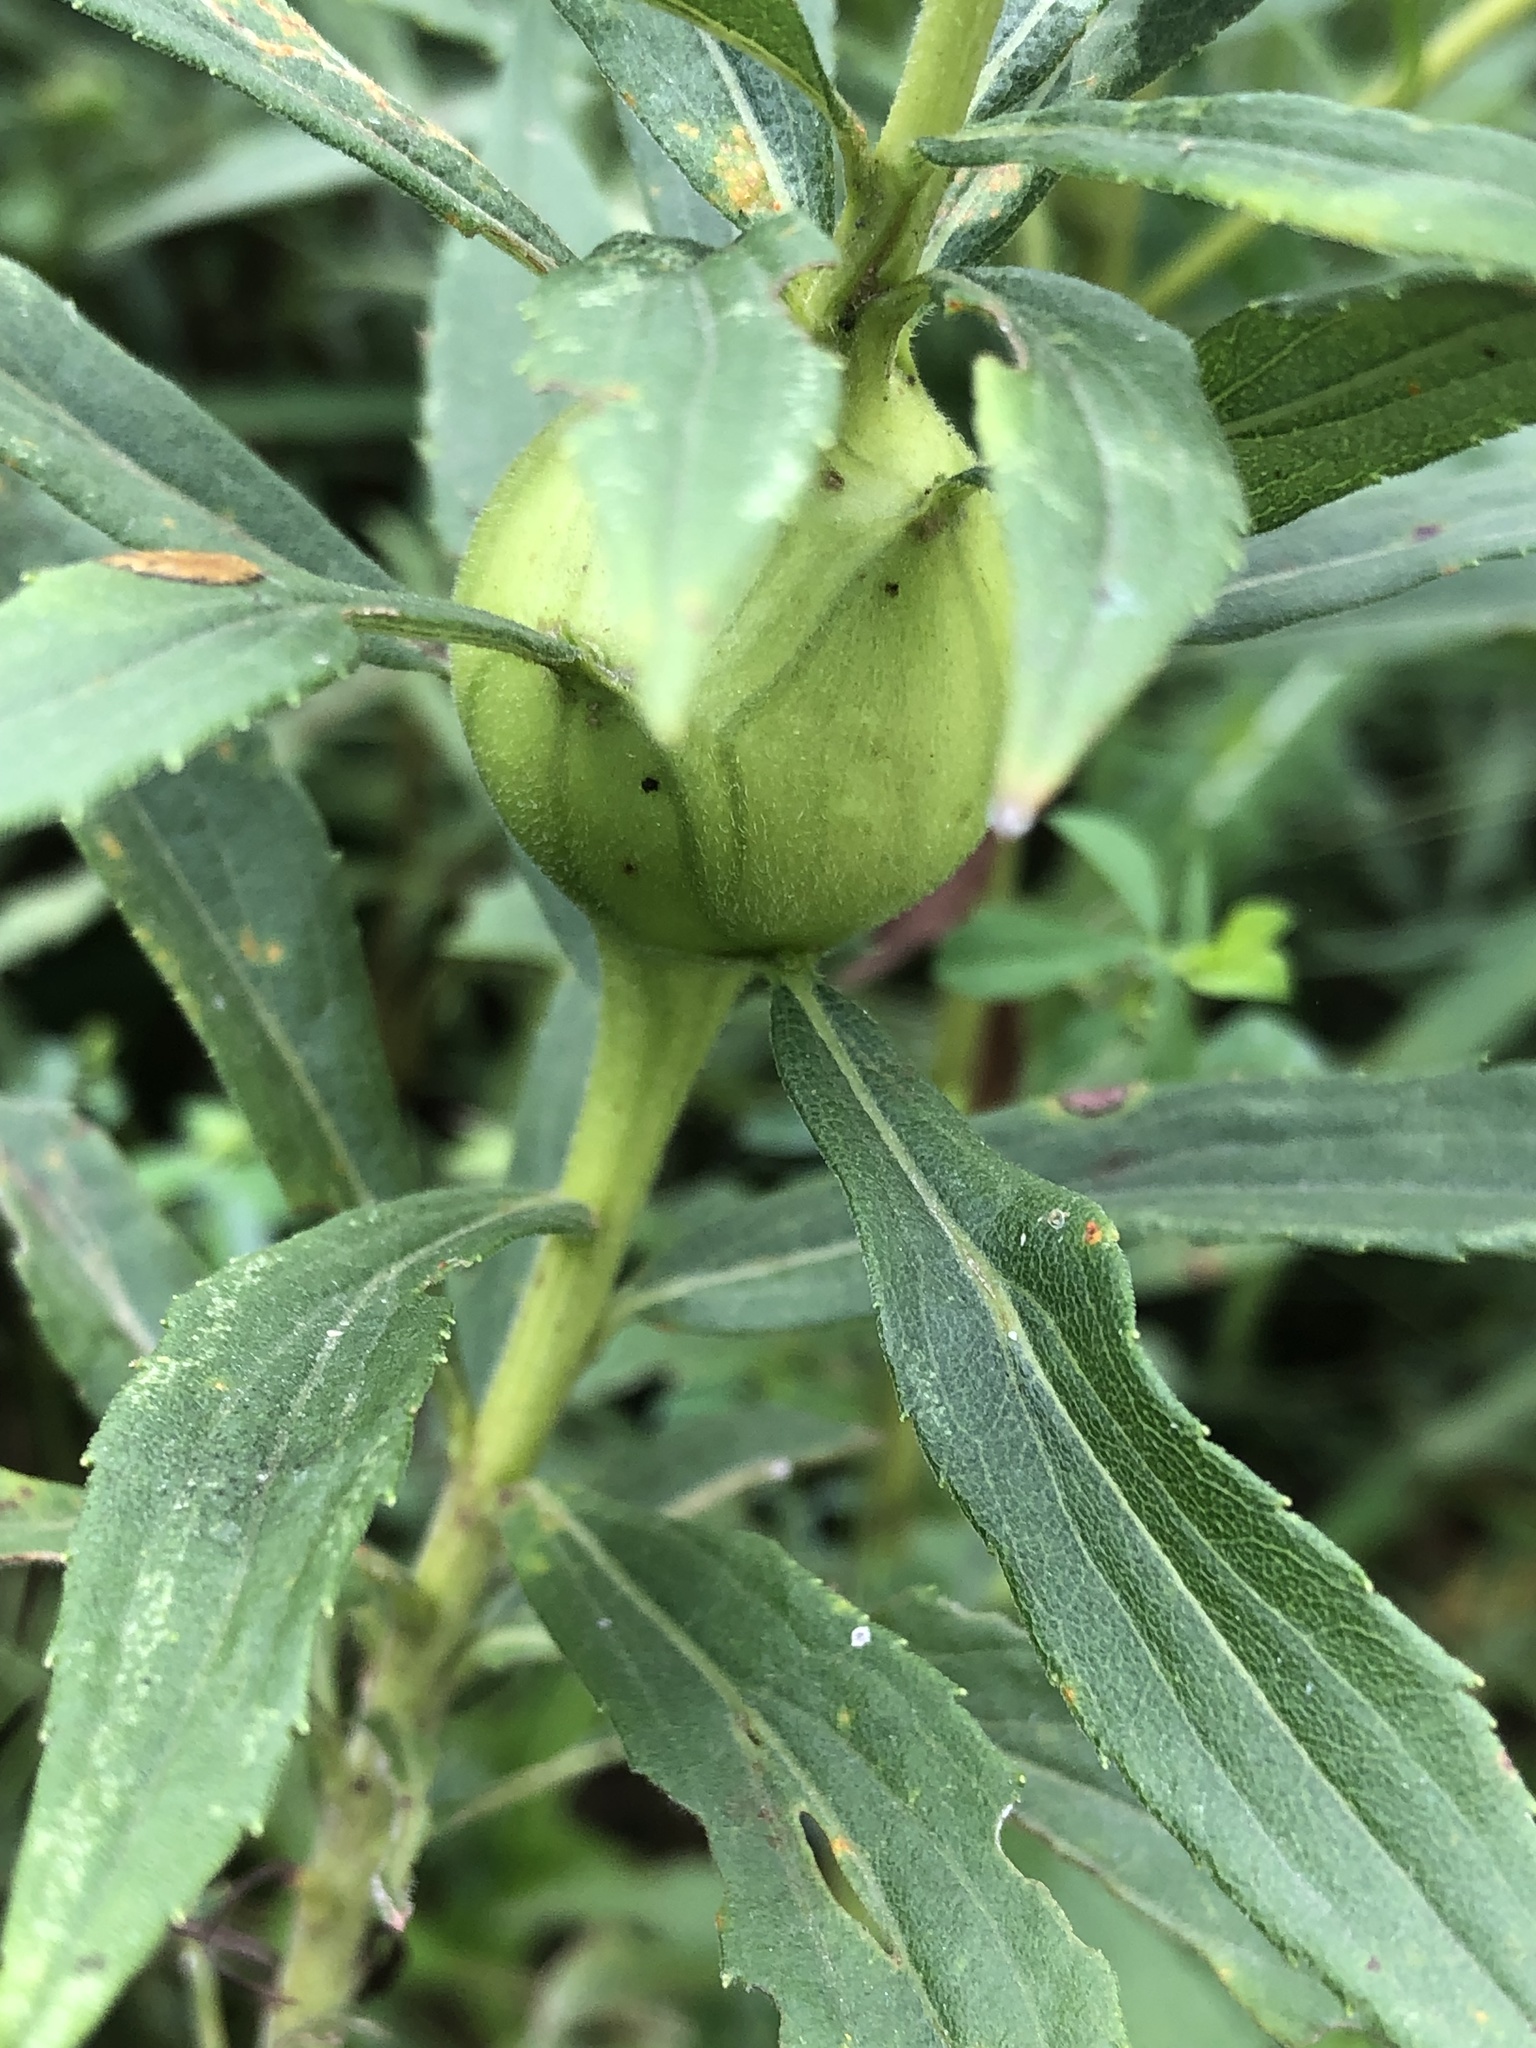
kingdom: Animalia
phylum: Arthropoda
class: Insecta
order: Diptera
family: Tephritidae
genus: Eurosta
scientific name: Eurosta solidaginis
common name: Goldenrod gall fly
